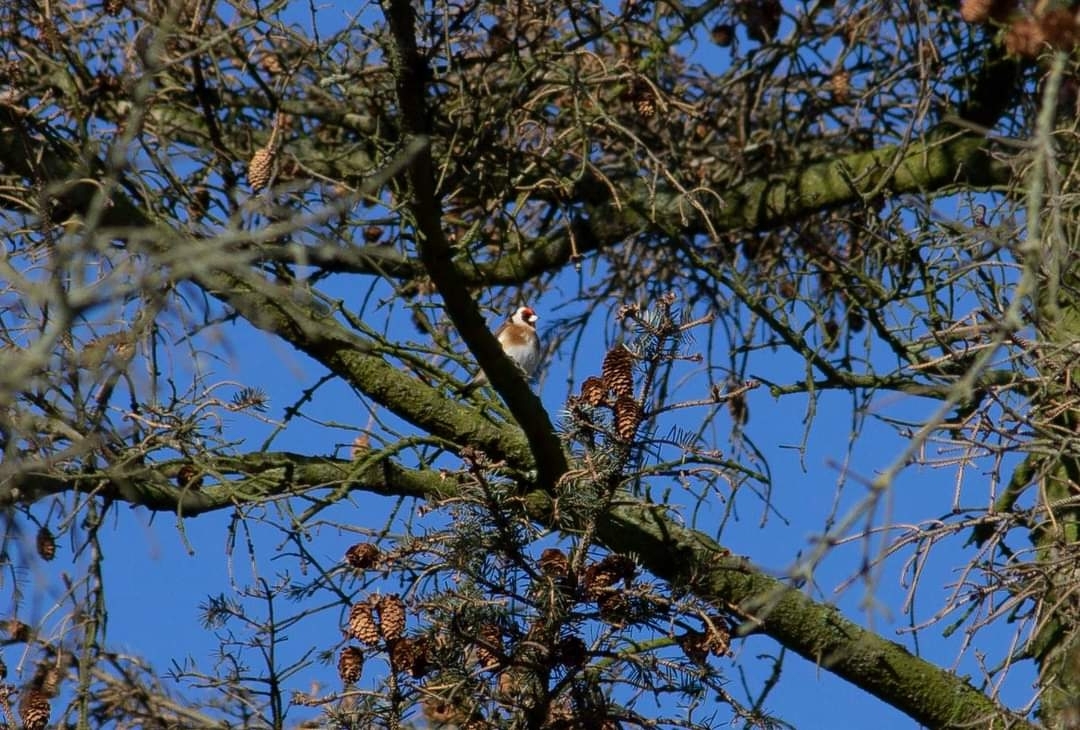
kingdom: Animalia
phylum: Chordata
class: Aves
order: Passeriformes
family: Fringillidae
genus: Carduelis
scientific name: Carduelis carduelis
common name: European goldfinch
